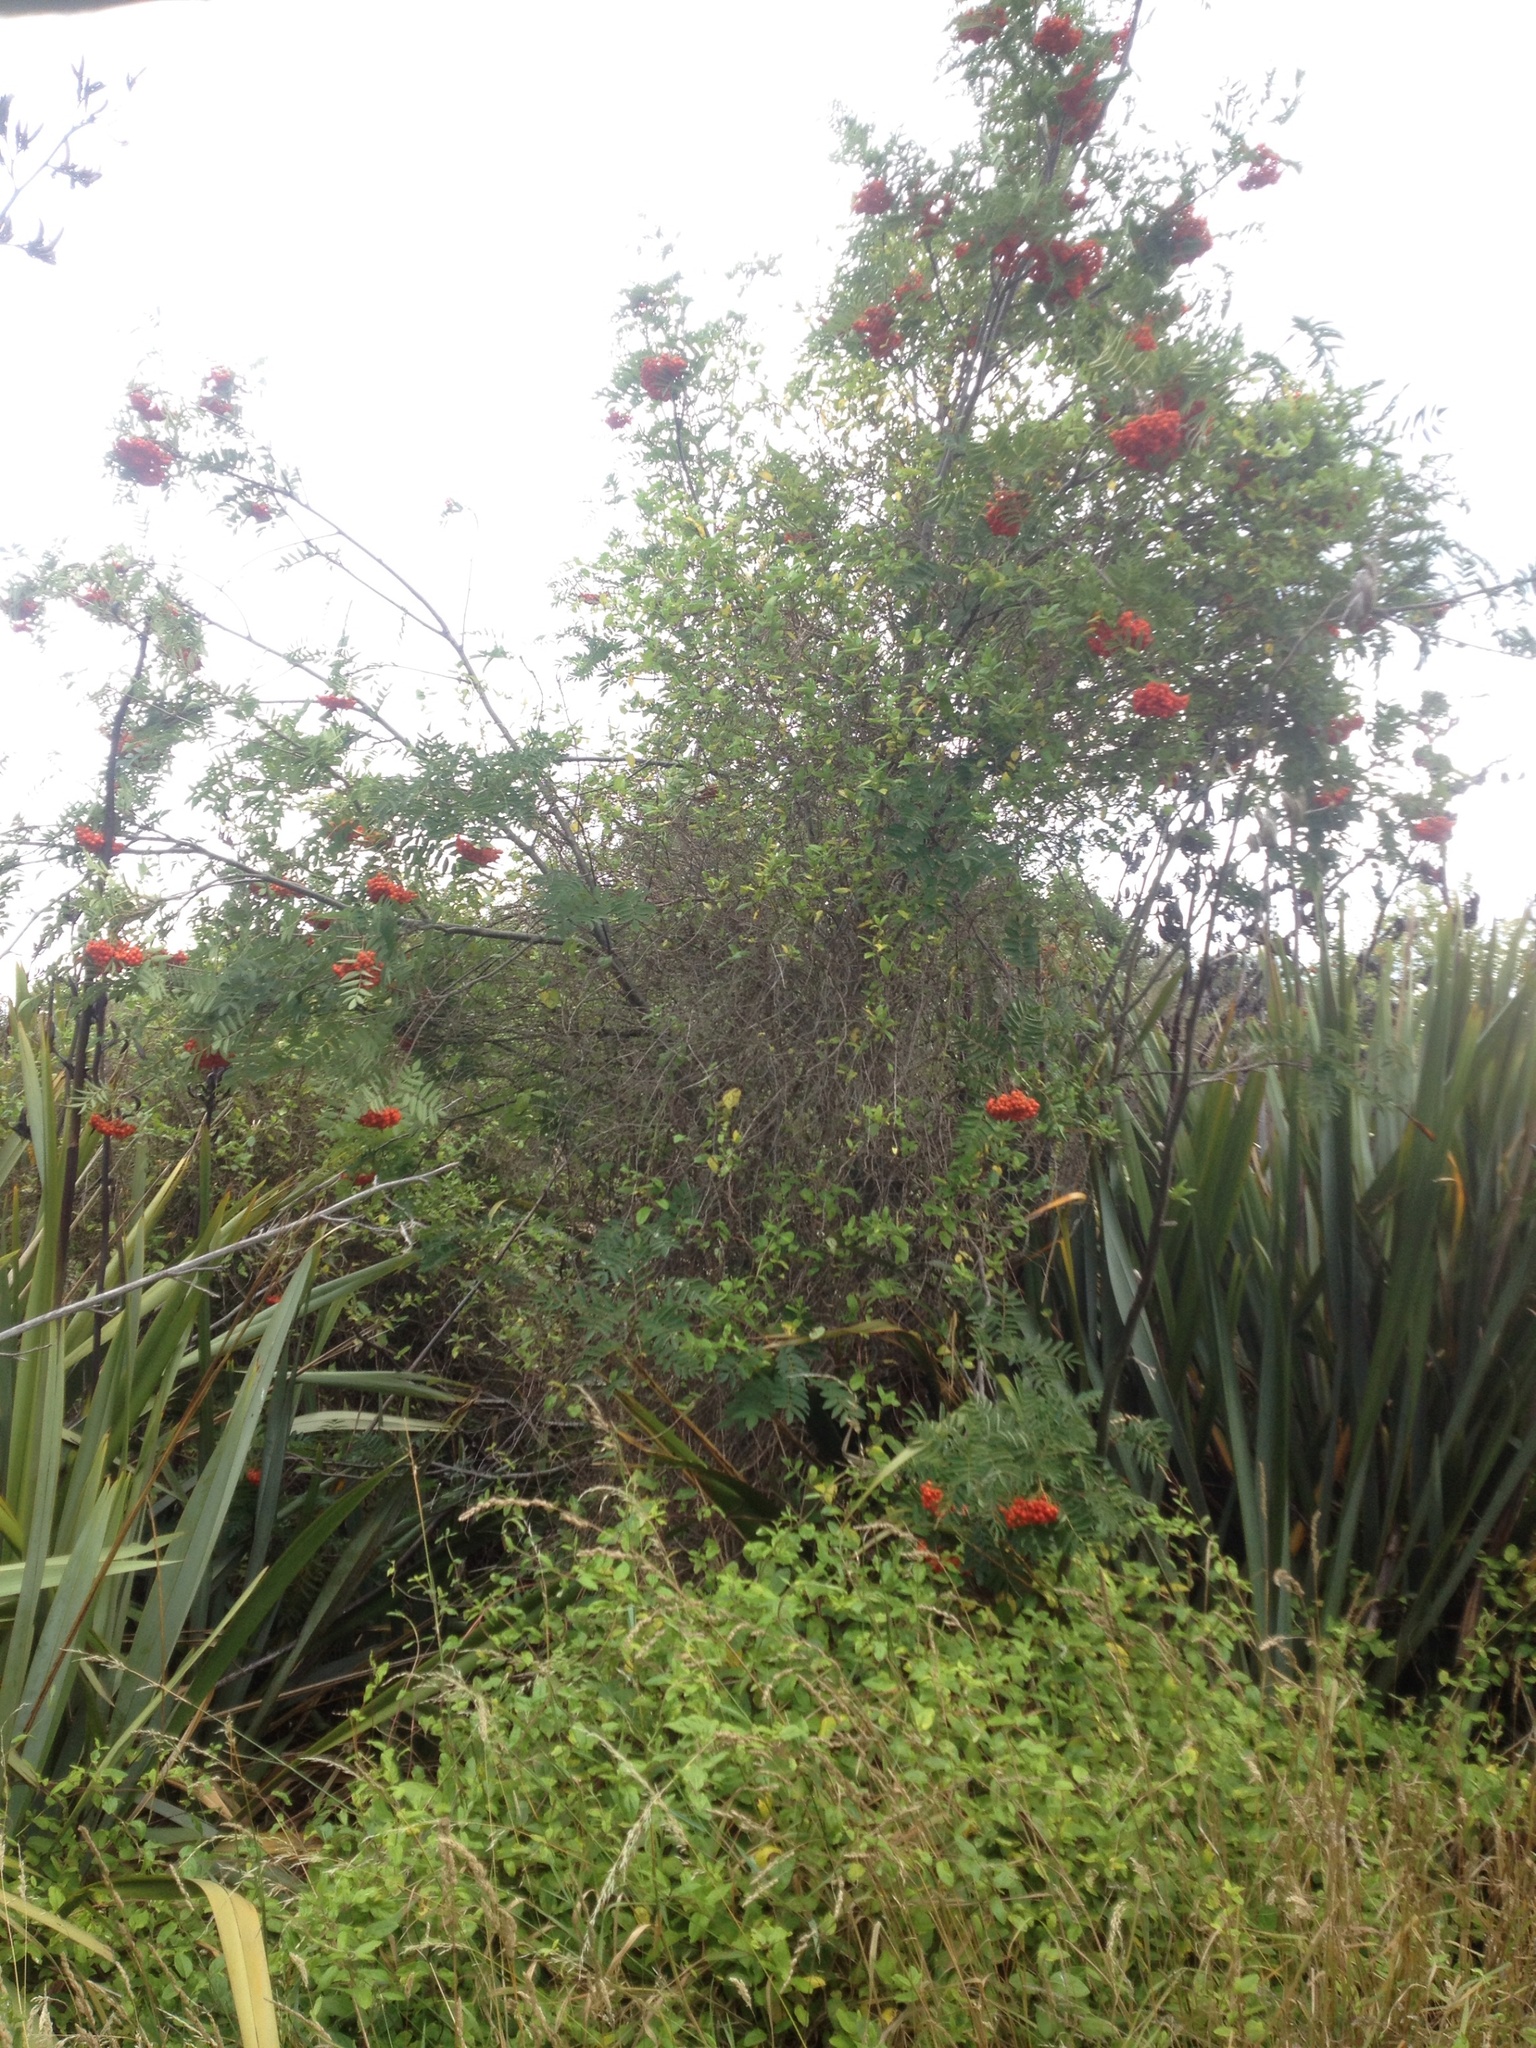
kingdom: Plantae
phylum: Tracheophyta
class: Magnoliopsida
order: Rosales
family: Rosaceae
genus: Sorbus
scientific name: Sorbus aucuparia
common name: Rowan
